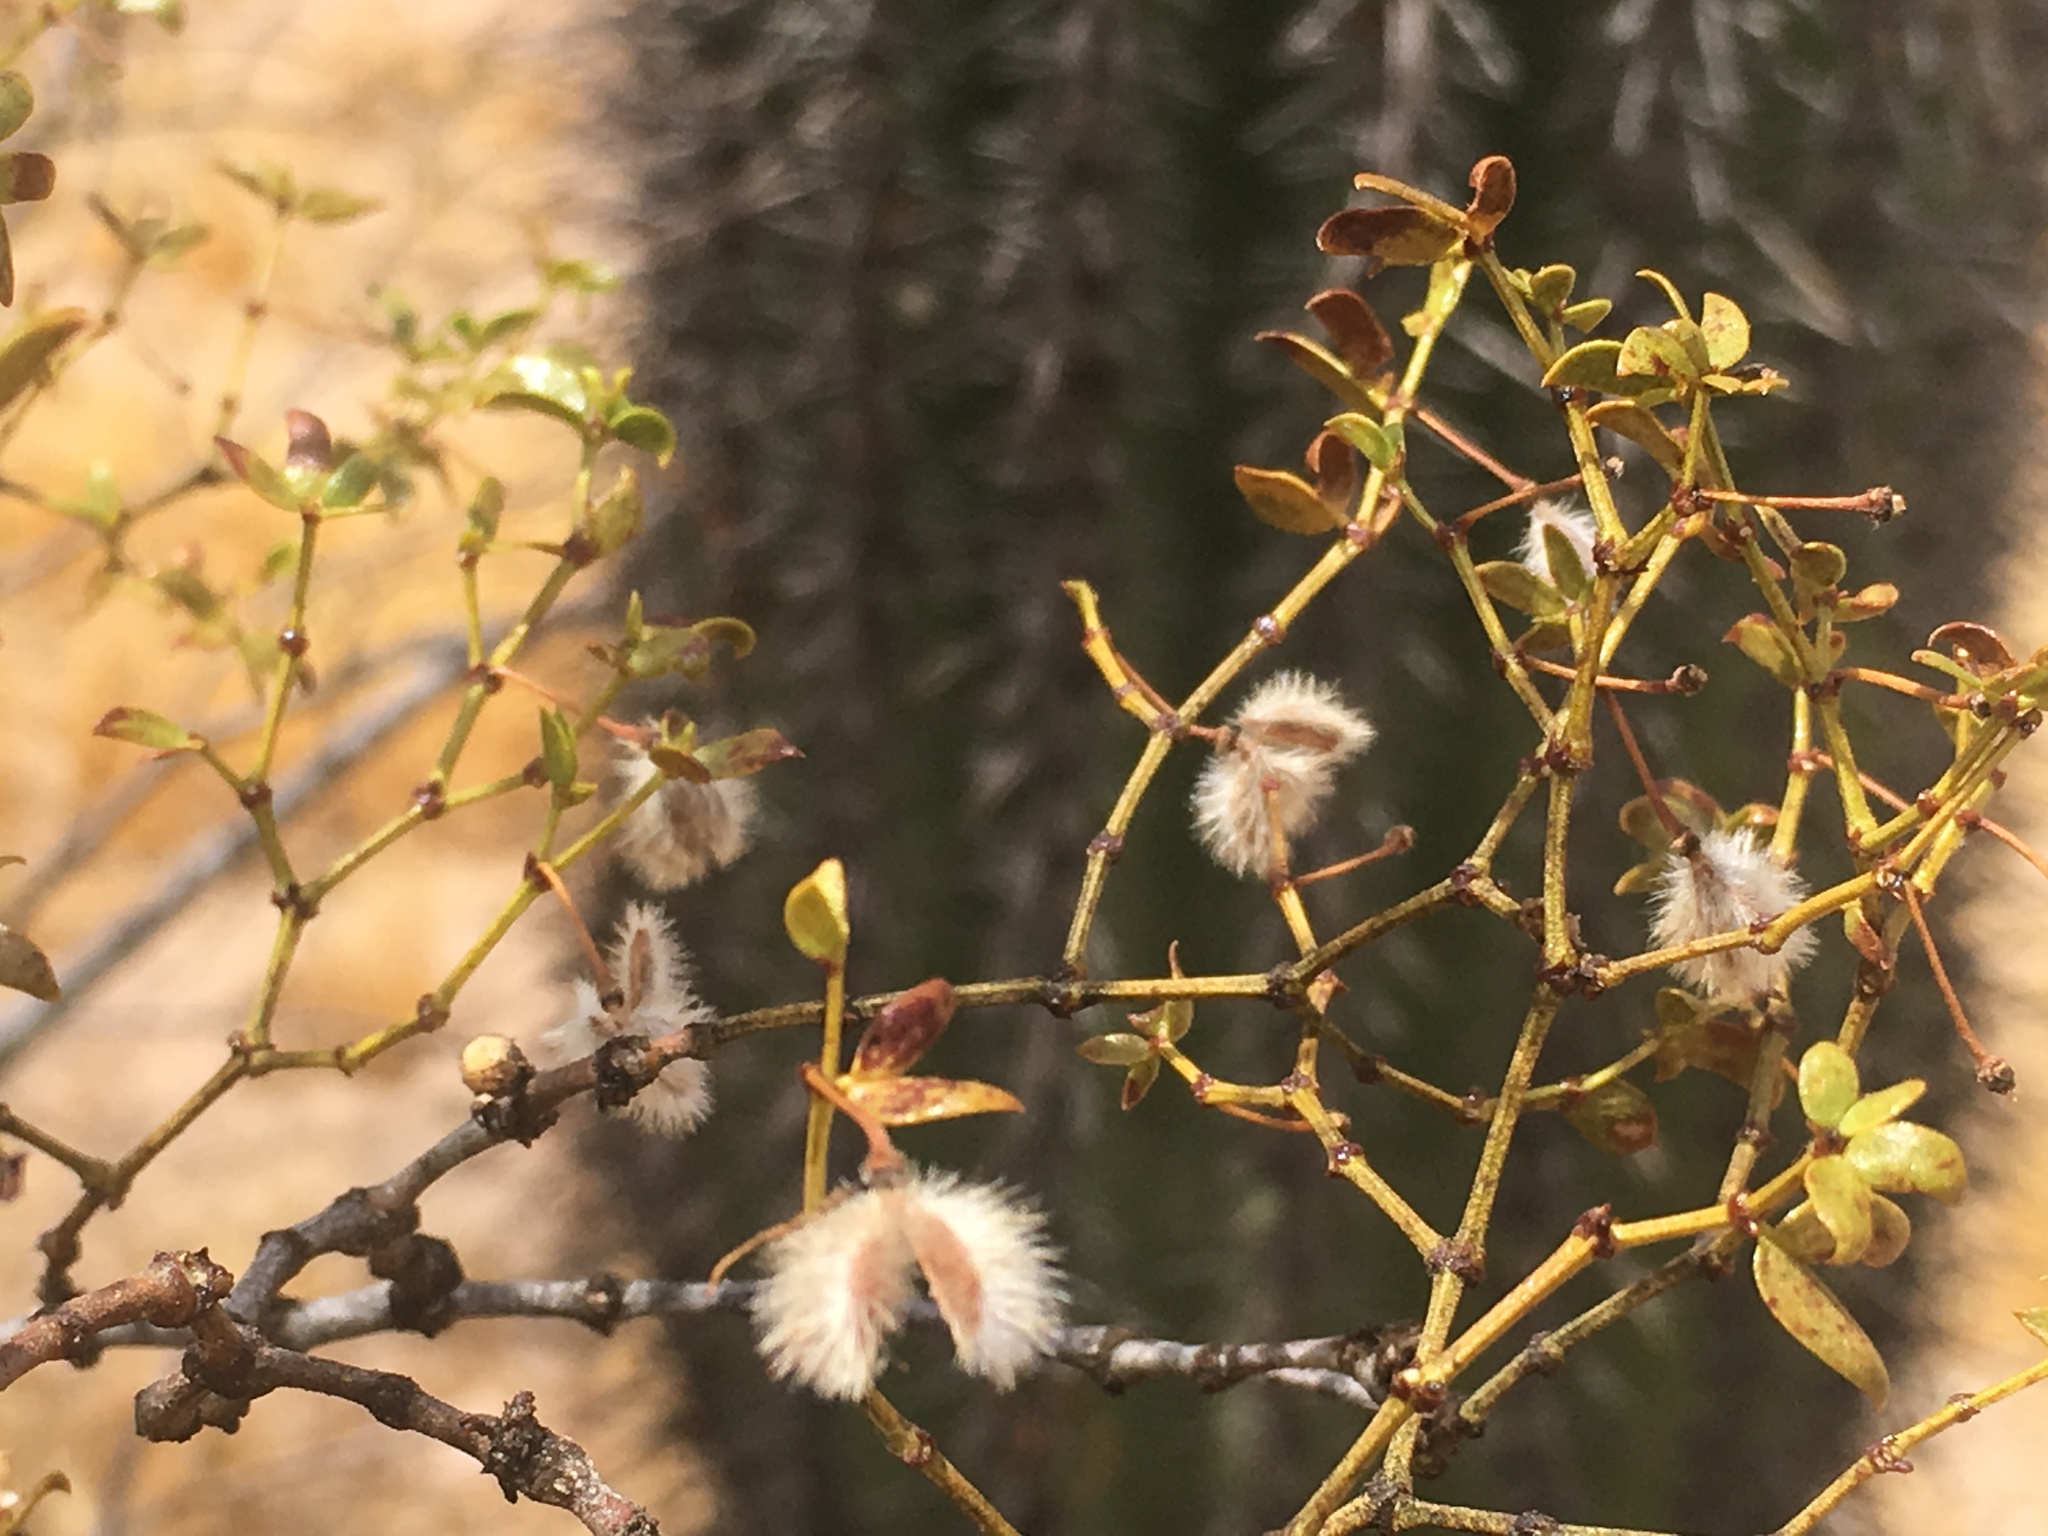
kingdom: Plantae
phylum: Tracheophyta
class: Magnoliopsida
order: Zygophyllales
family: Zygophyllaceae
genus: Larrea
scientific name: Larrea tridentata
